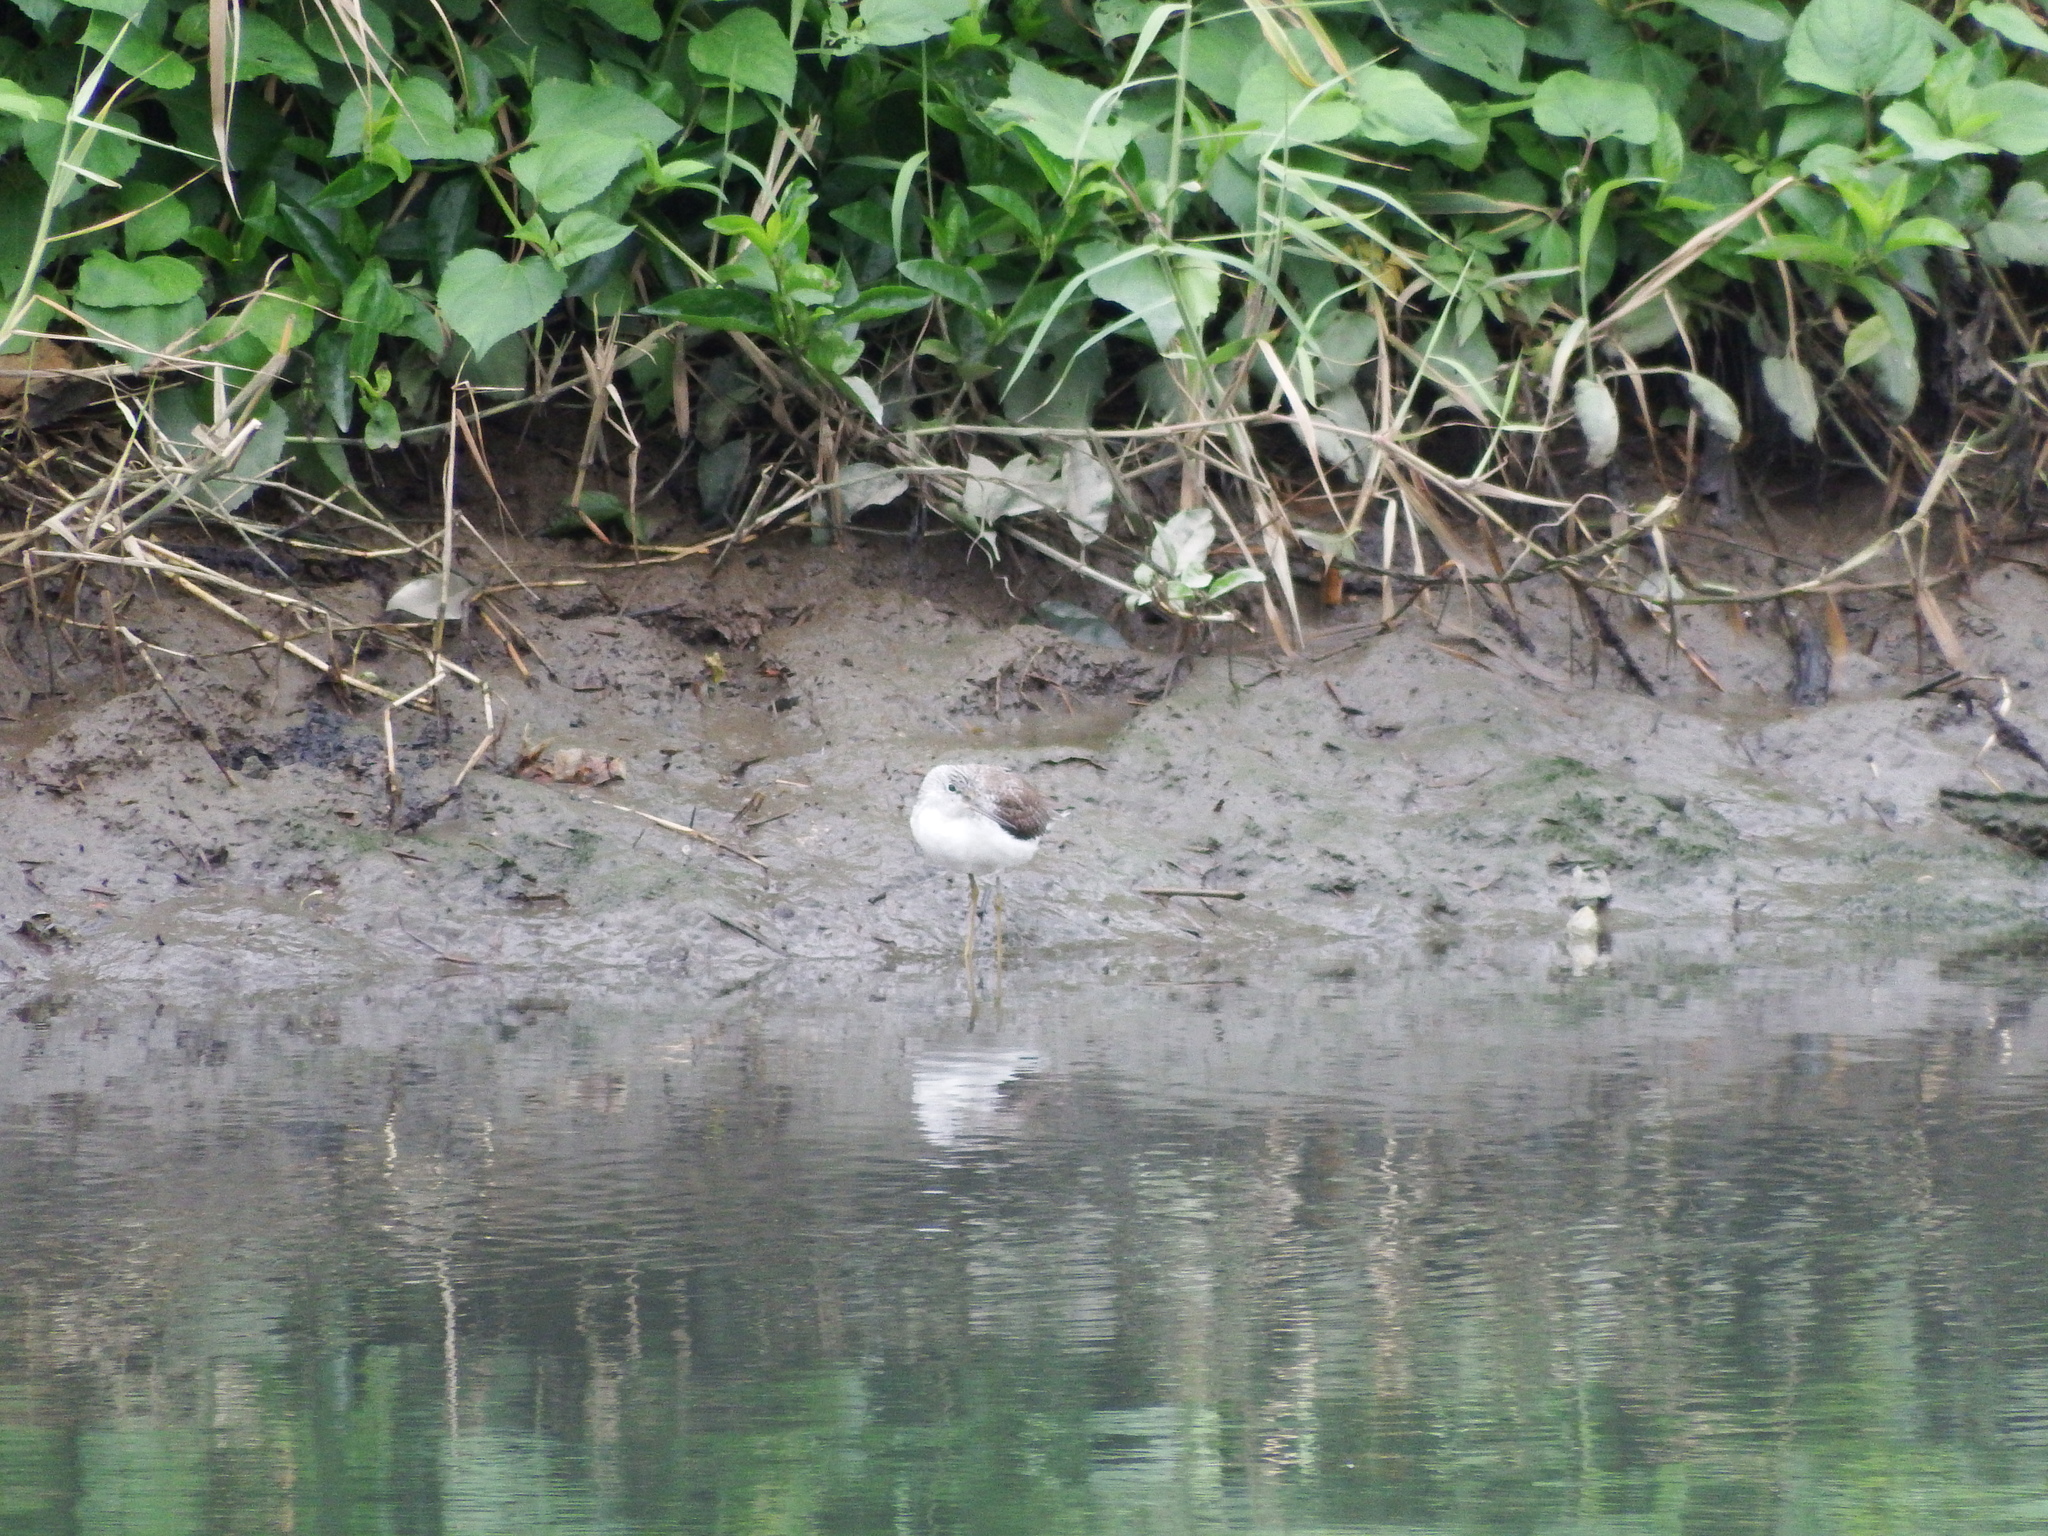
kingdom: Animalia
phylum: Chordata
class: Aves
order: Charadriiformes
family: Scolopacidae
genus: Tringa
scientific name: Tringa nebularia
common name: Common greenshank
